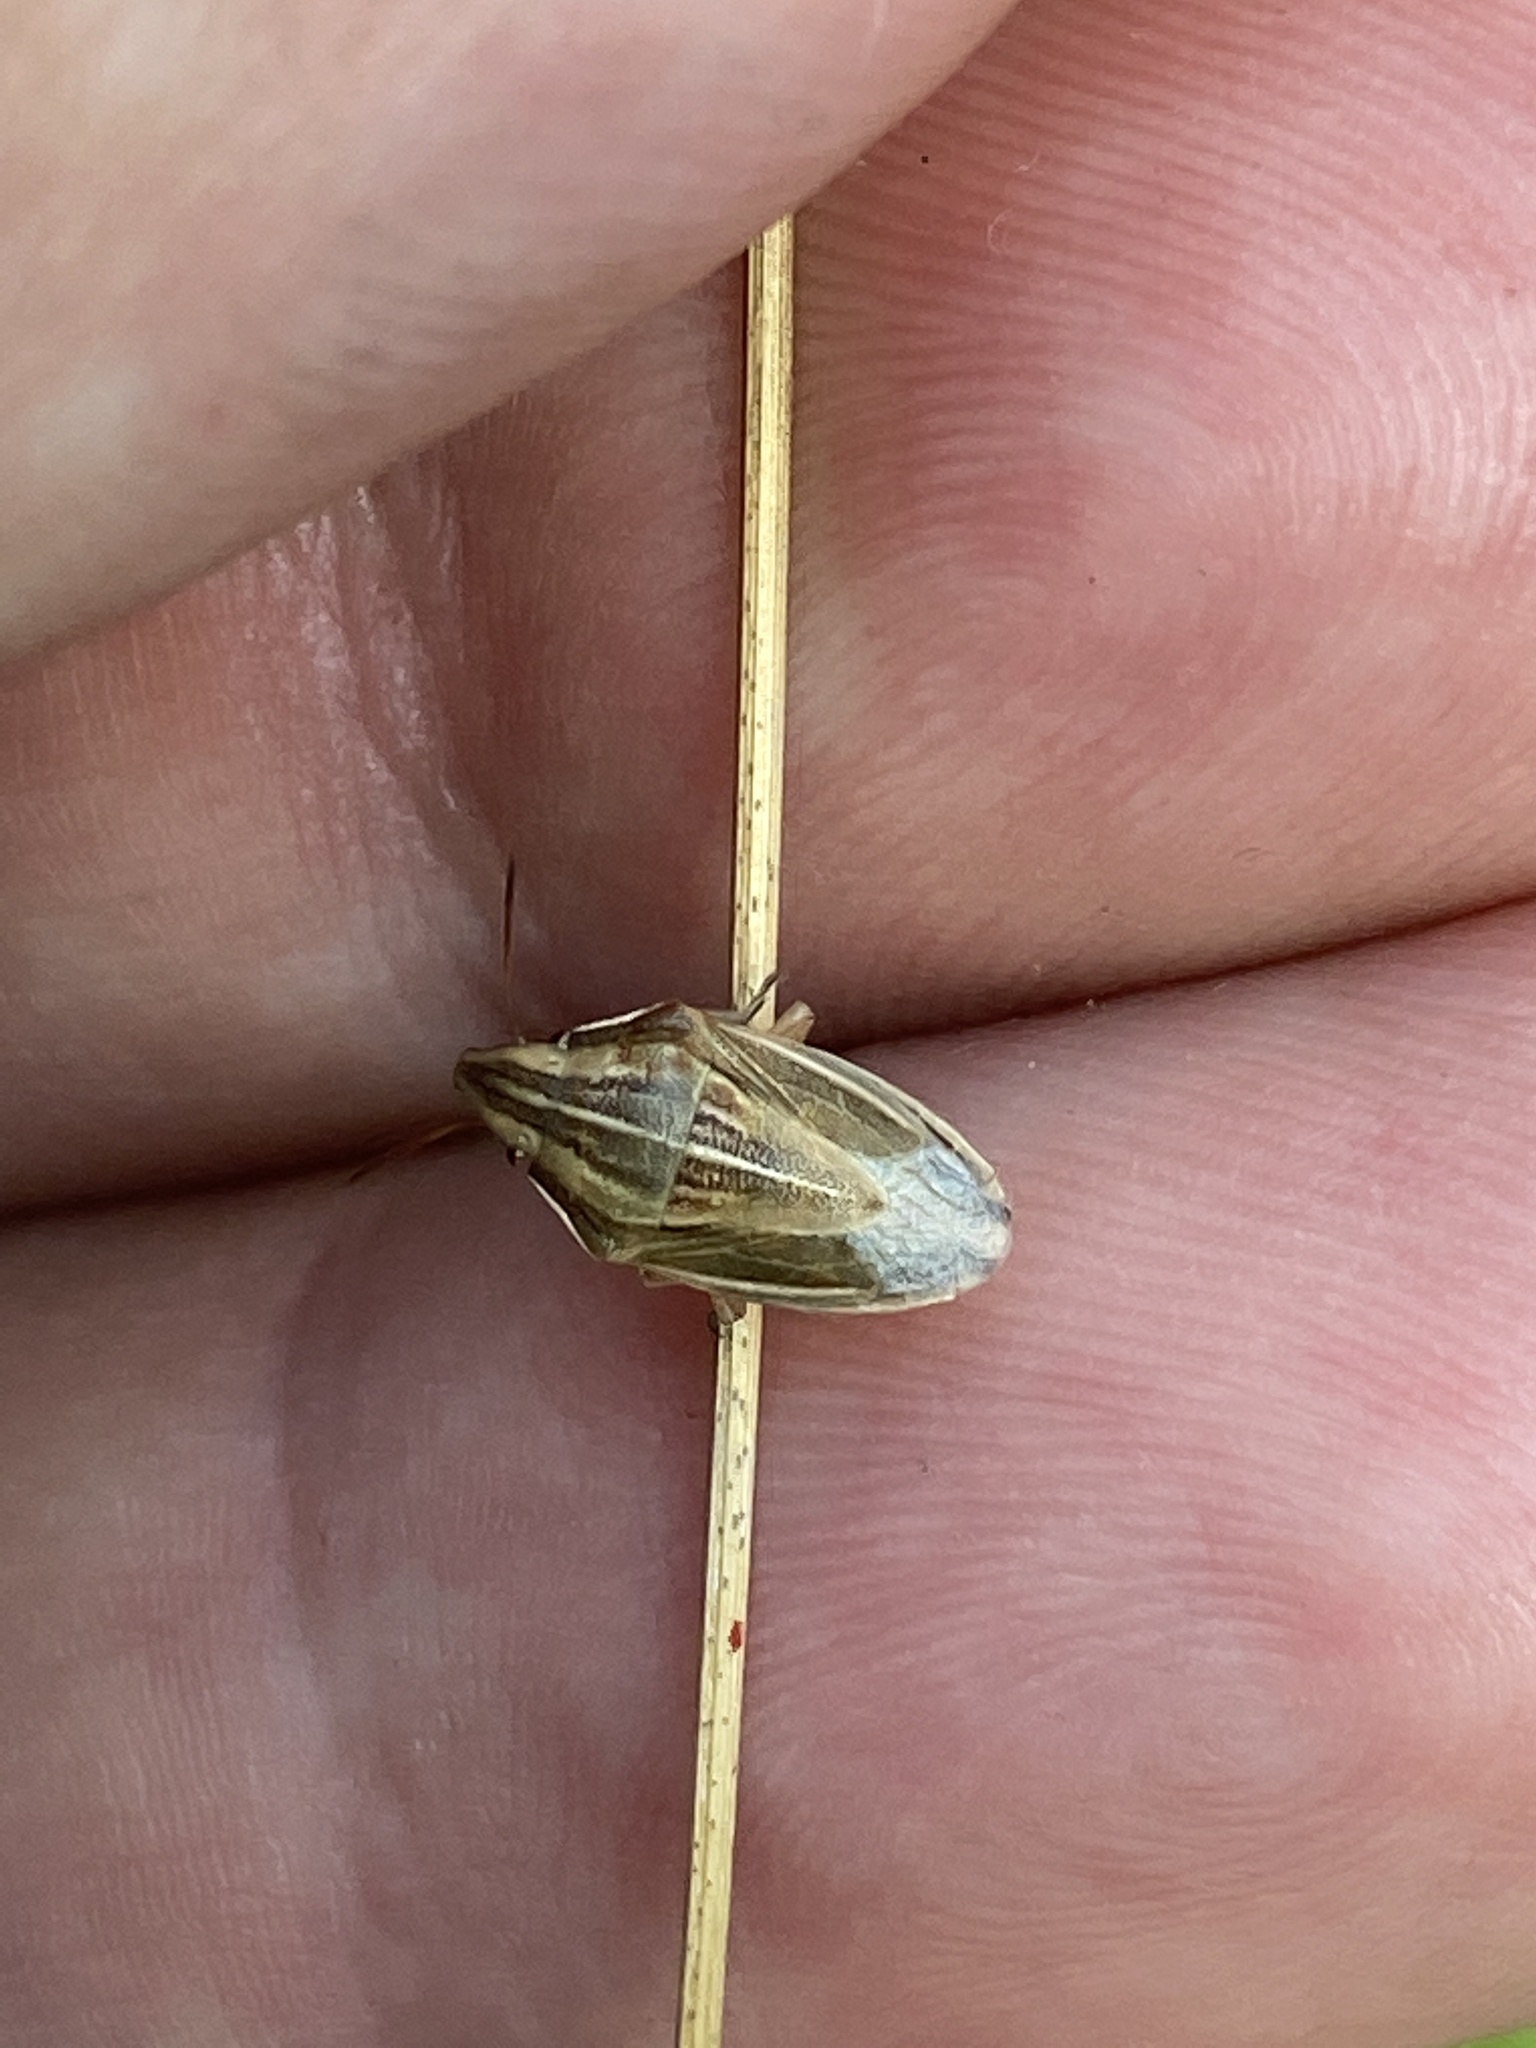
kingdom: Animalia
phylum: Arthropoda
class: Insecta
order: Hemiptera
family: Pentatomidae
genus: Aelia
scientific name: Aelia acuminata
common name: Bishop's mitre
